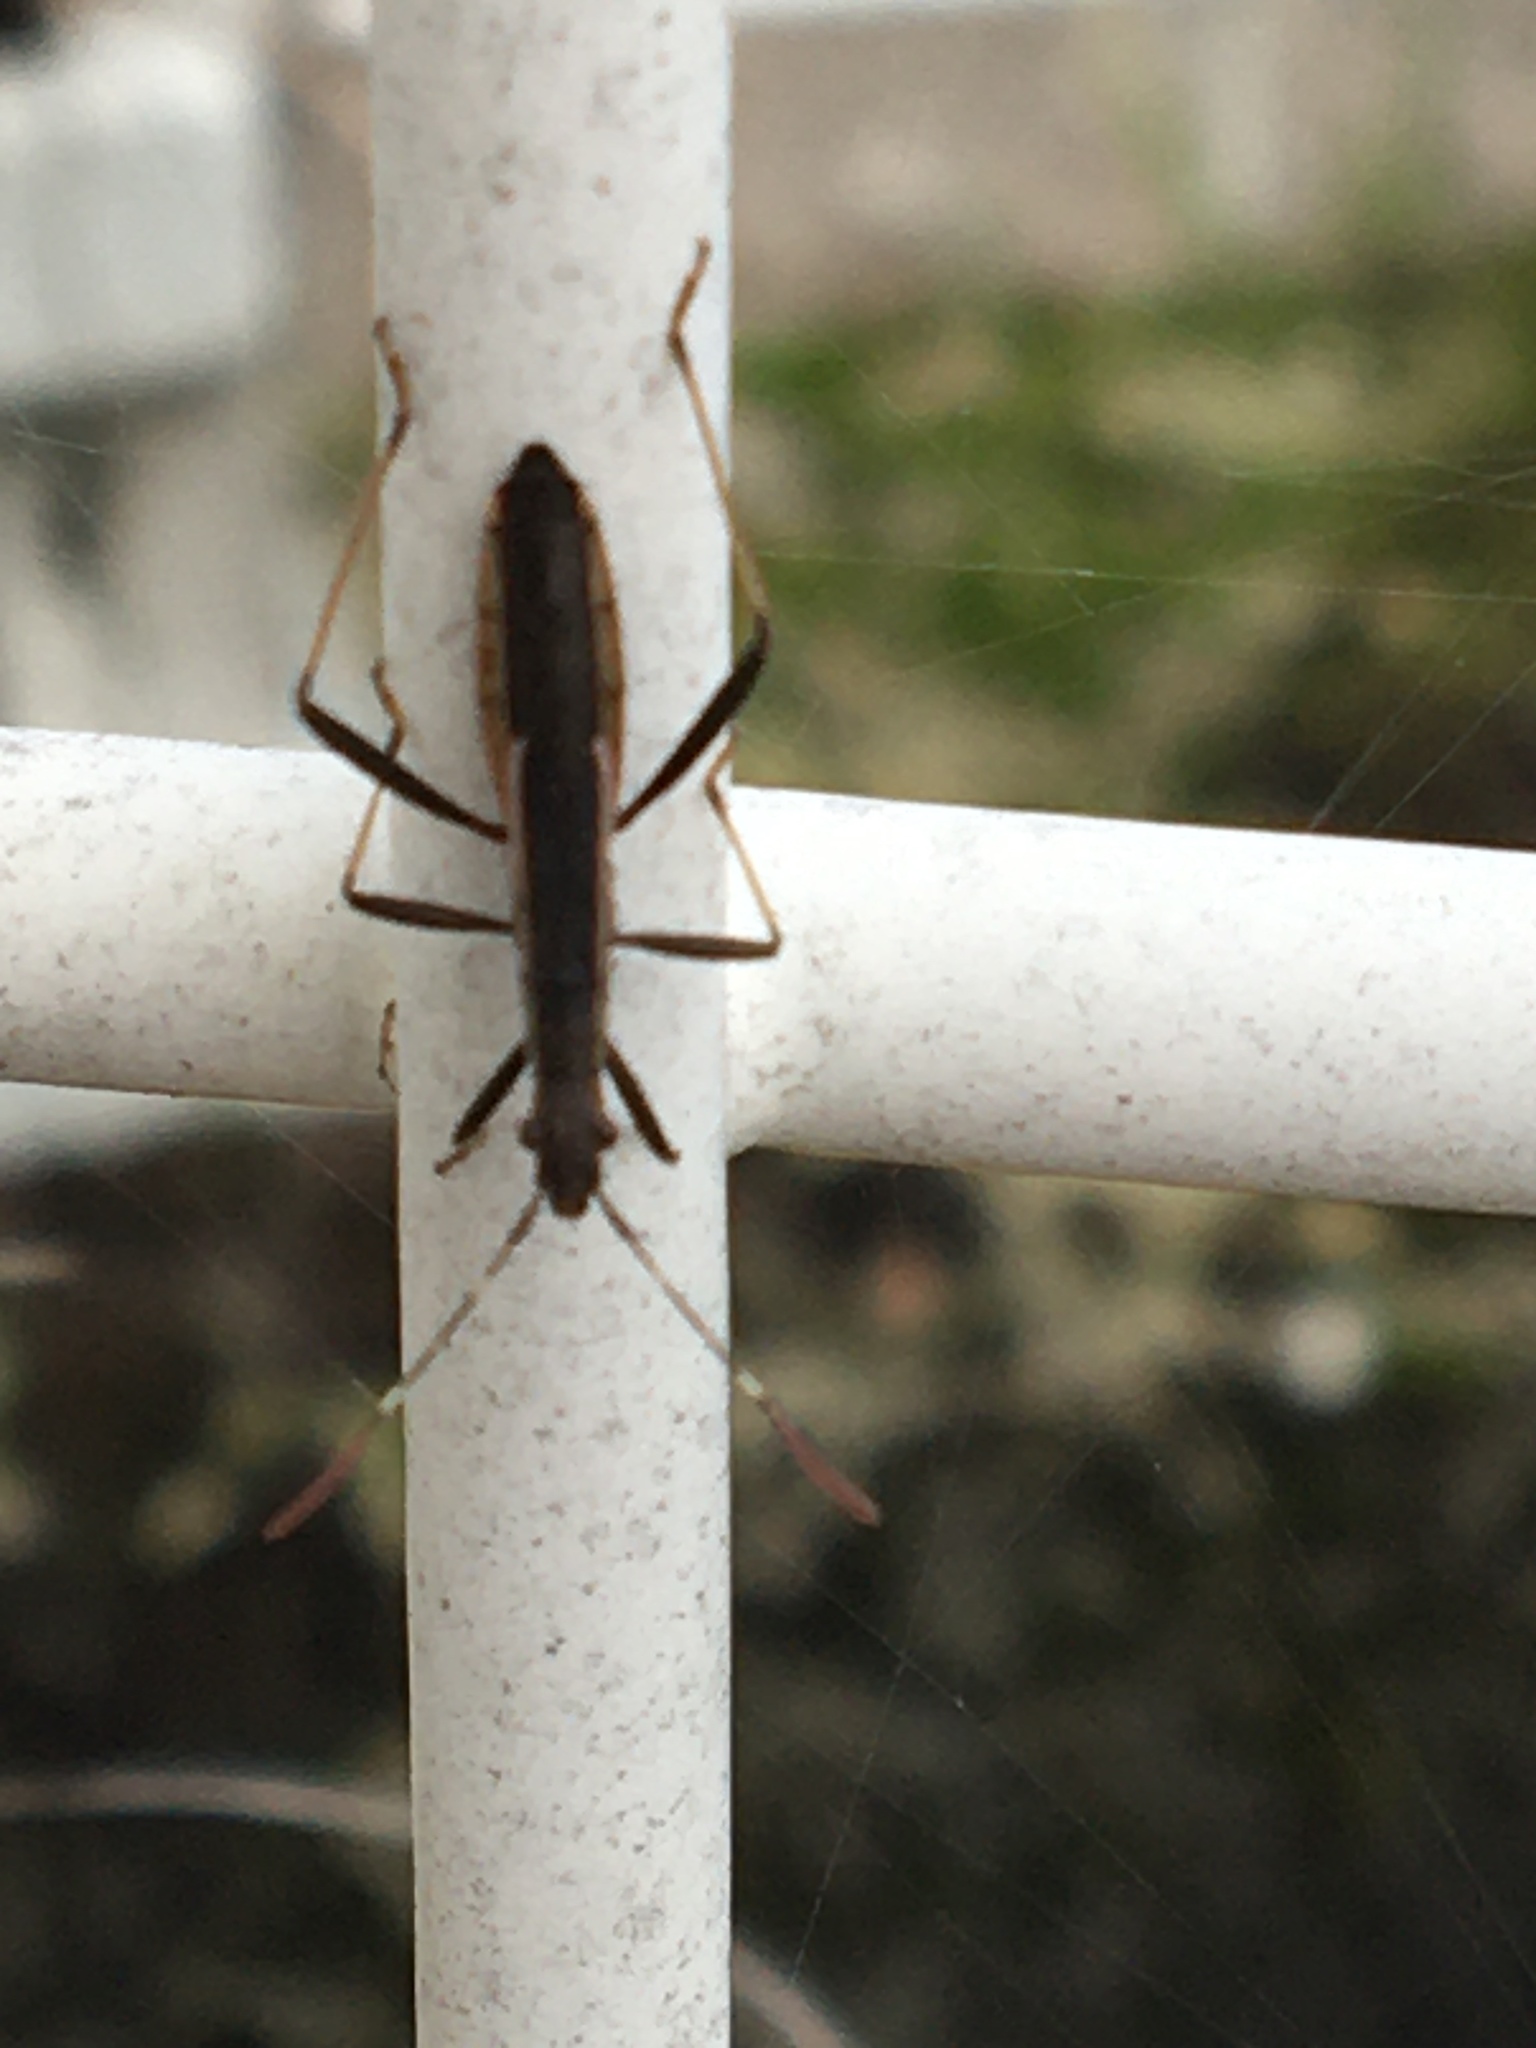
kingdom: Animalia
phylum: Arthropoda
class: Insecta
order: Hemiptera
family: Alydidae
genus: Micrelytra
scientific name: Micrelytra fossularum
